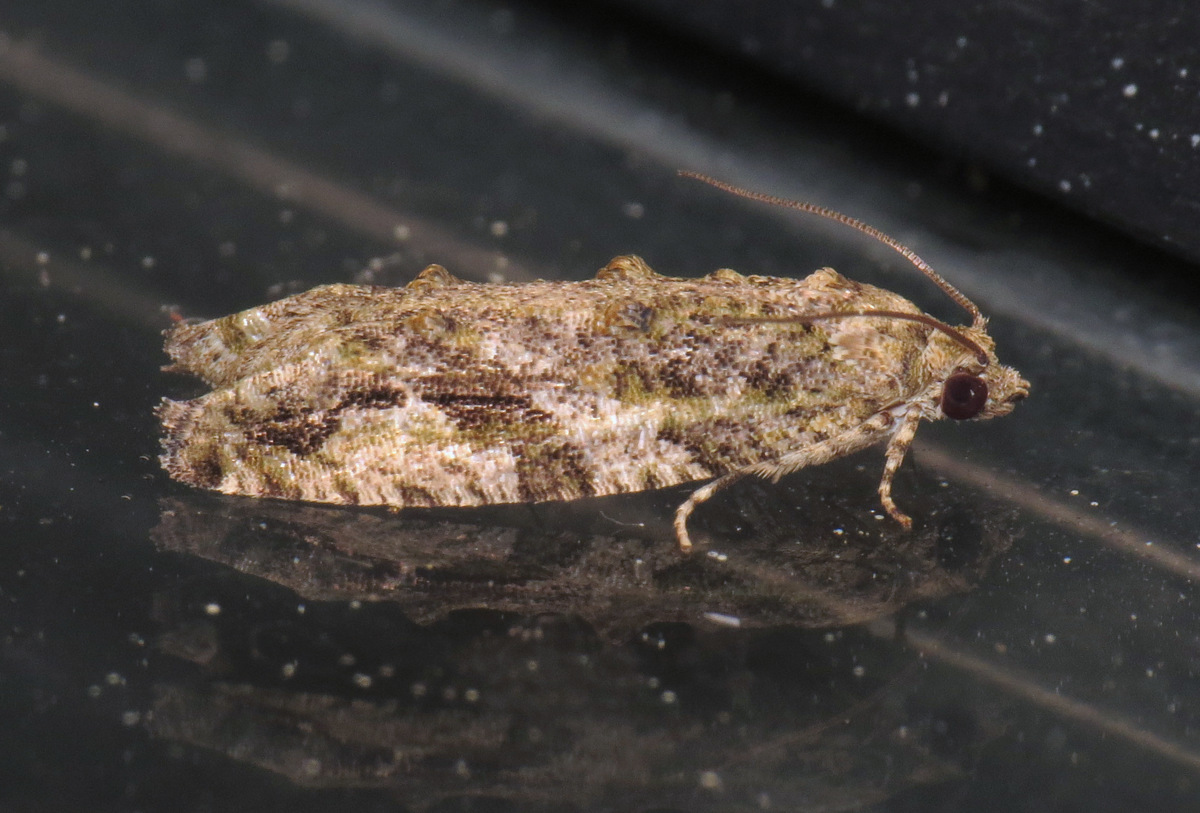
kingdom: Animalia
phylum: Arthropoda
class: Insecta
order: Lepidoptera
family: Tortricidae
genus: Proteoteras
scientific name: Proteoteras aesculana
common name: Maple twig borer moth
